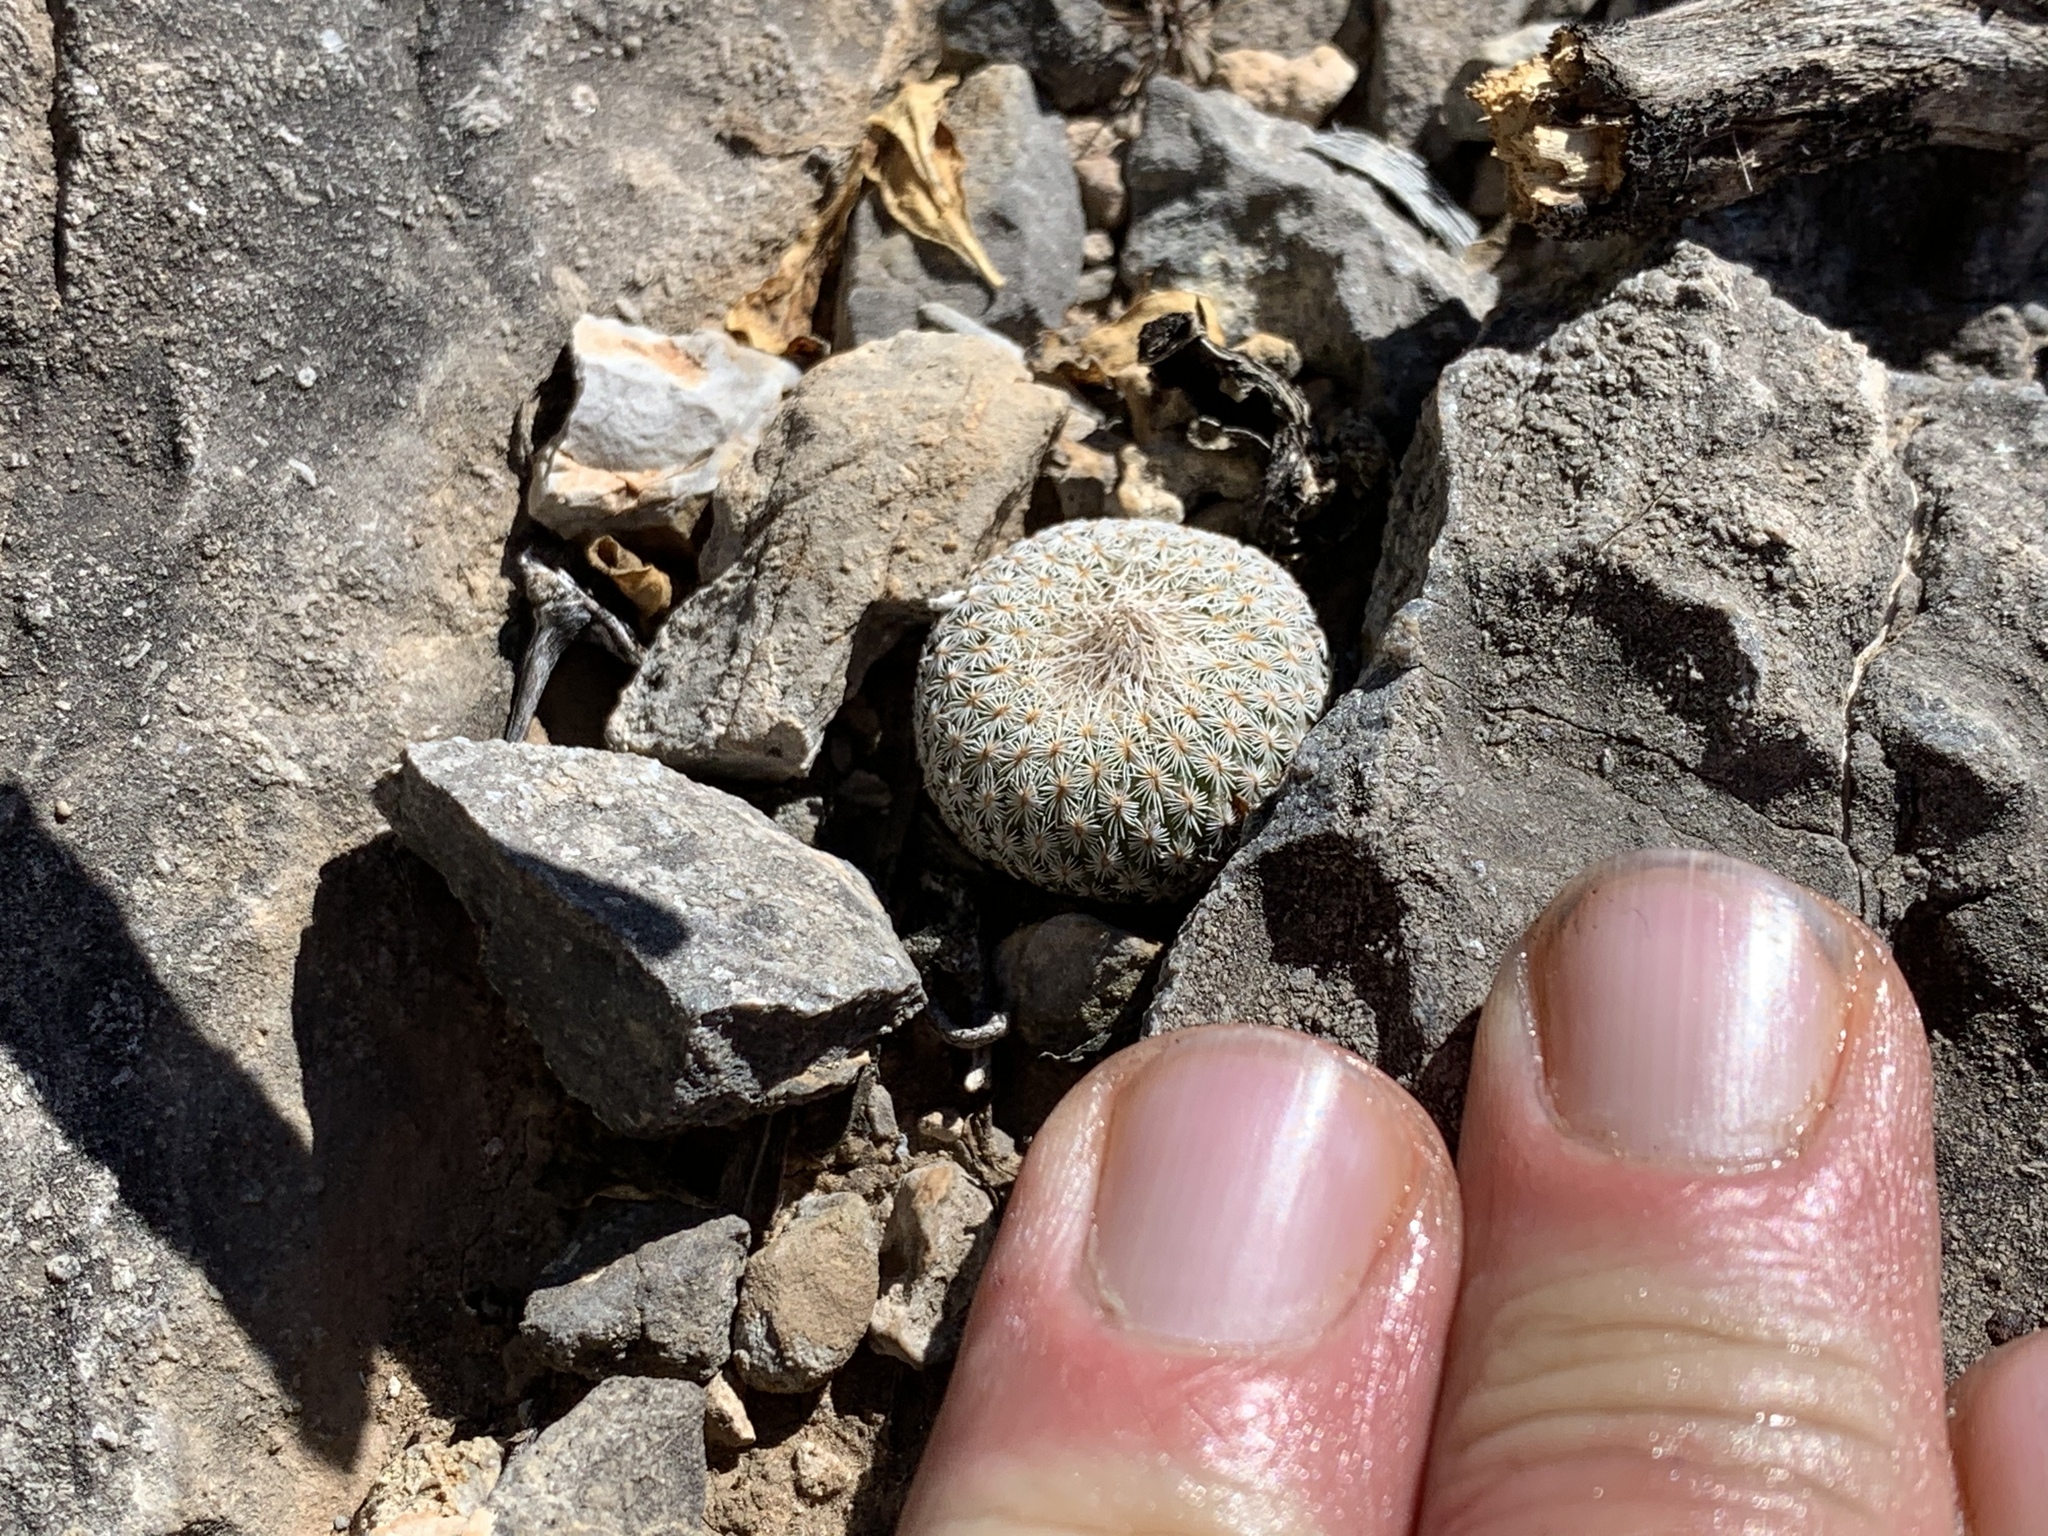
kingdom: Plantae
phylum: Tracheophyta
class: Magnoliopsida
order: Caryophyllales
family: Cactaceae
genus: Epithelantha
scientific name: Epithelantha micromeris
